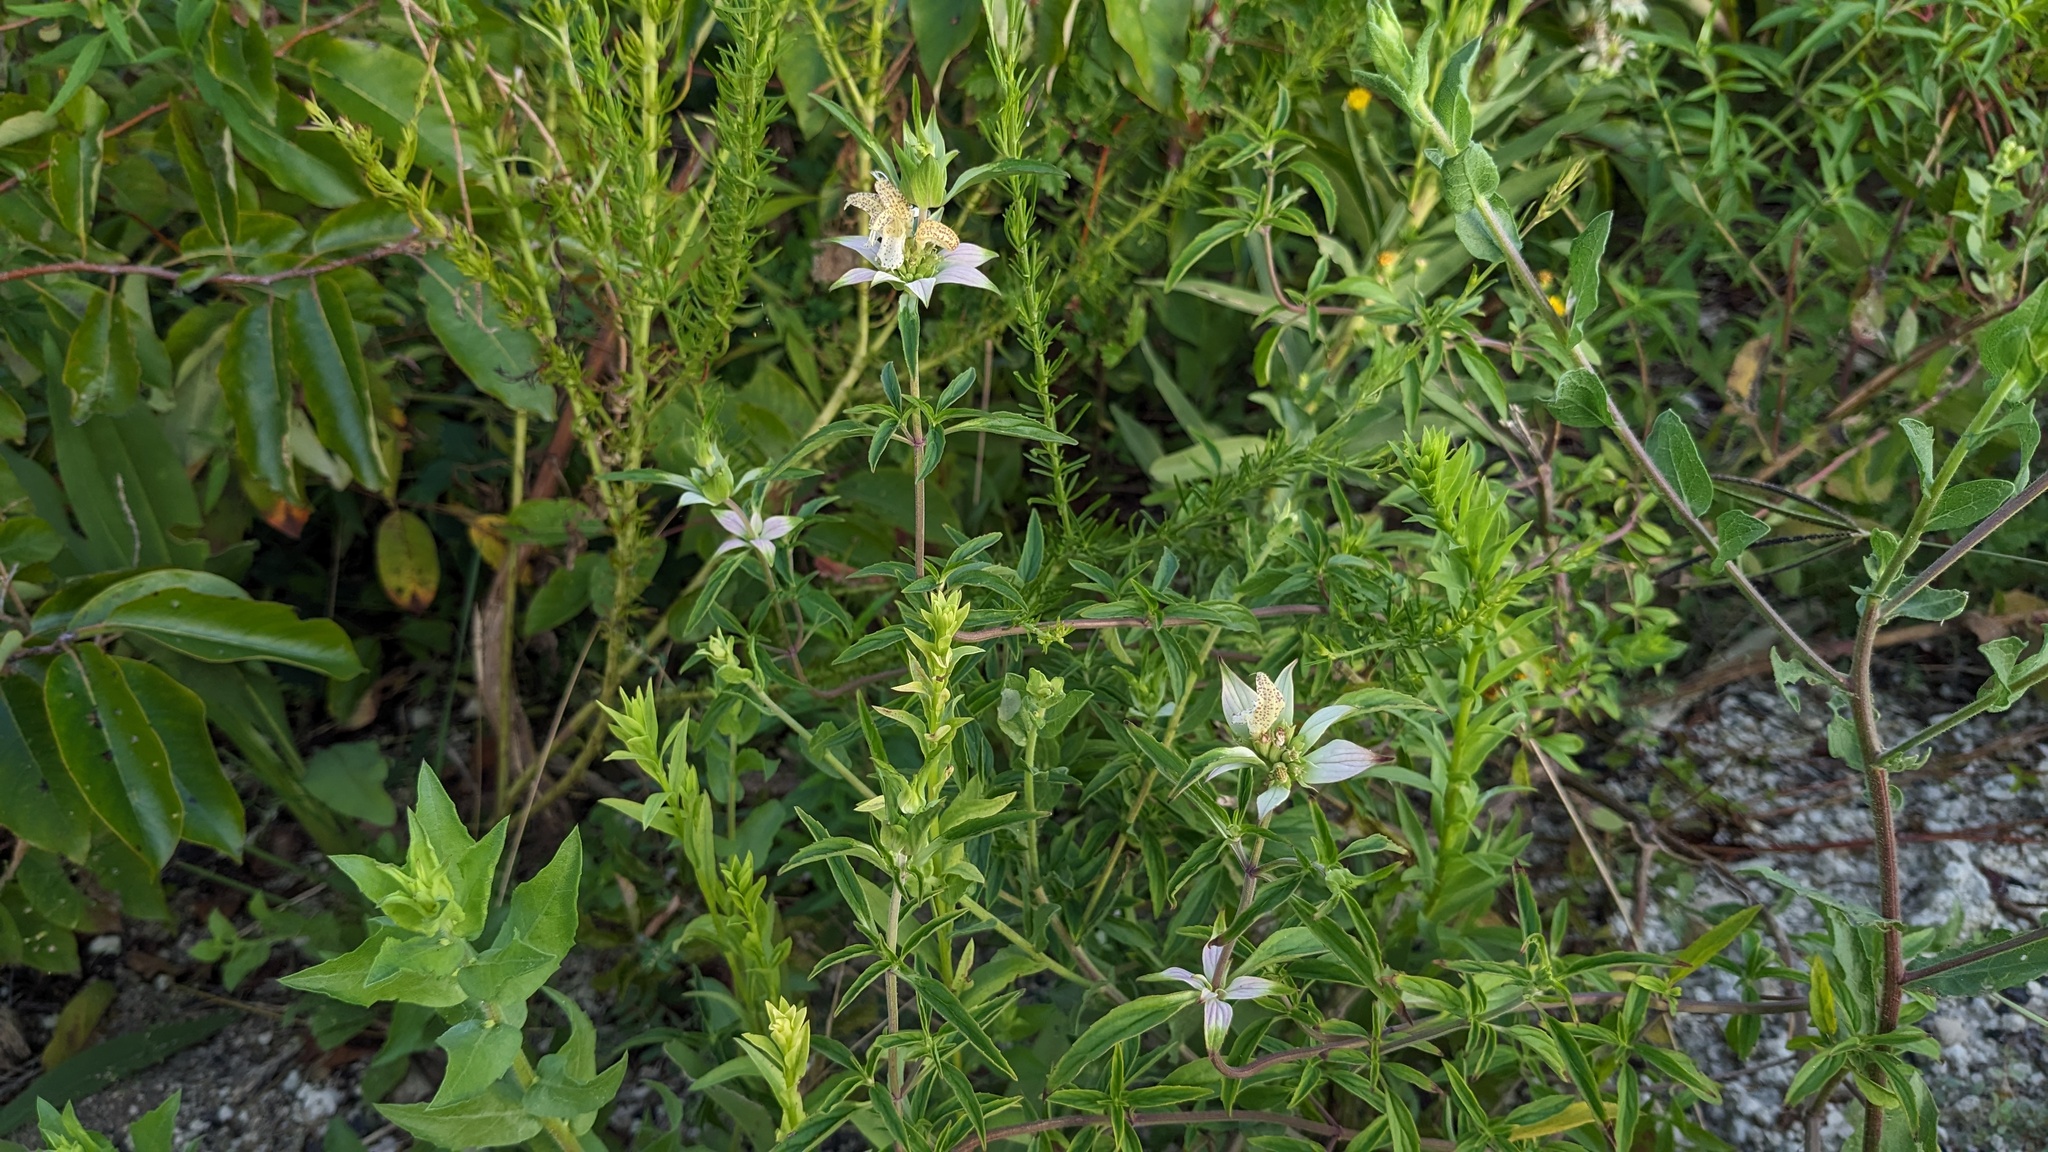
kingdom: Plantae
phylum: Tracheophyta
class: Magnoliopsida
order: Lamiales
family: Lamiaceae
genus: Monarda
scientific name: Monarda punctata
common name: Dotted monarda
